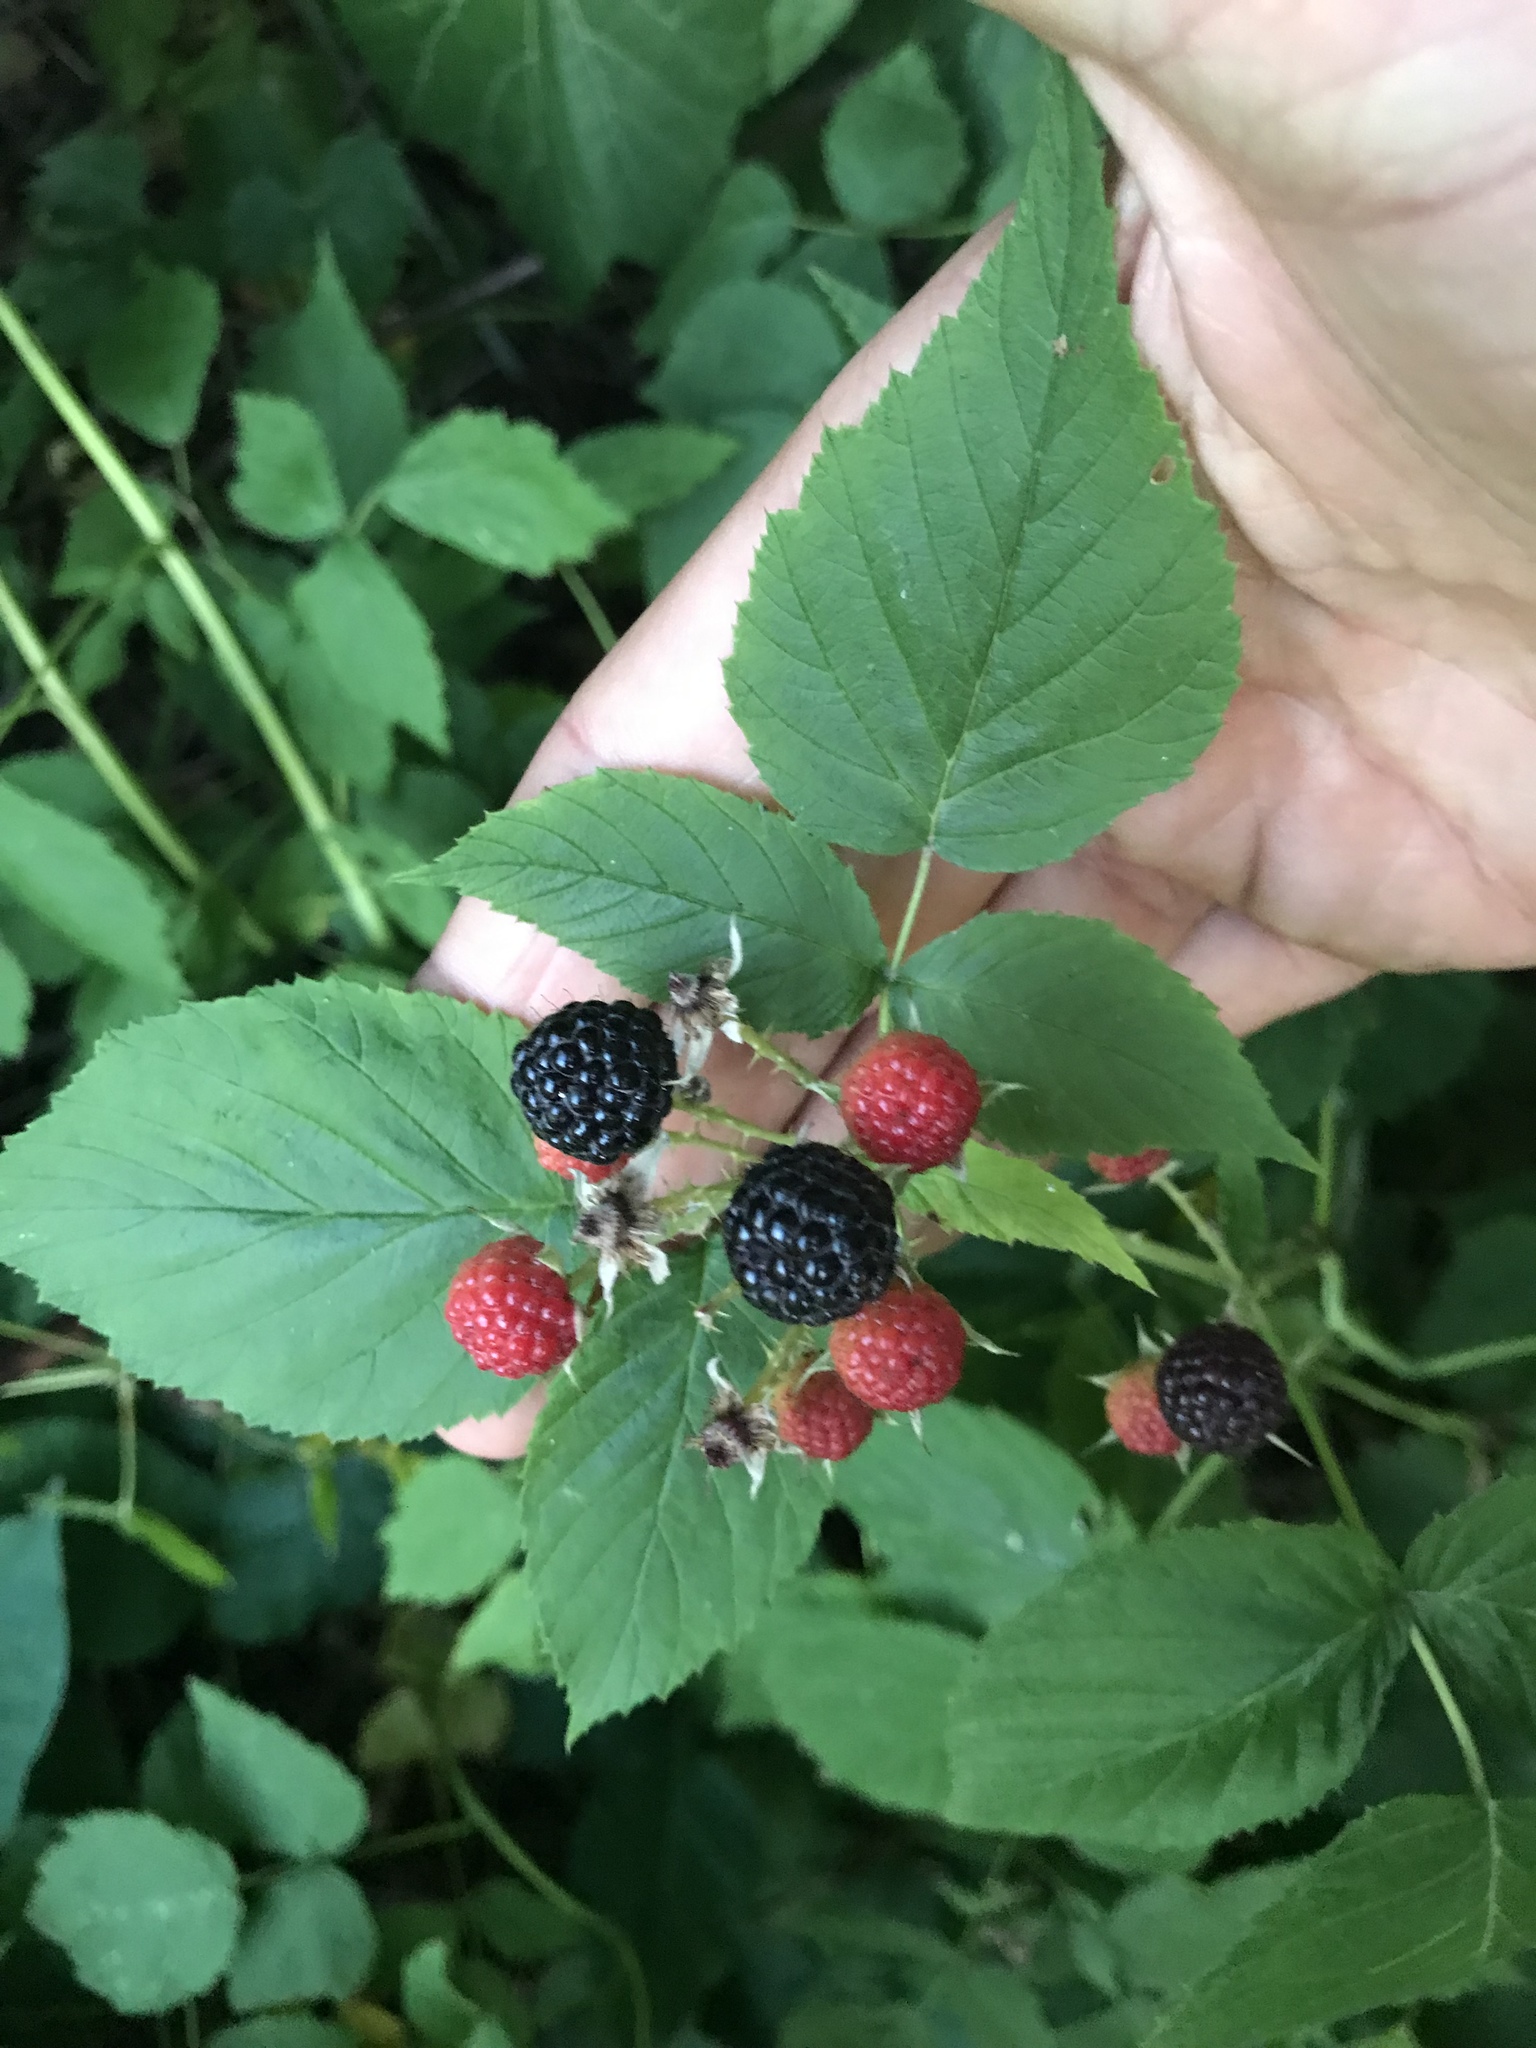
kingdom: Plantae
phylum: Tracheophyta
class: Magnoliopsida
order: Rosales
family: Rosaceae
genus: Rubus
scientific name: Rubus occidentalis
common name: Black raspberry
